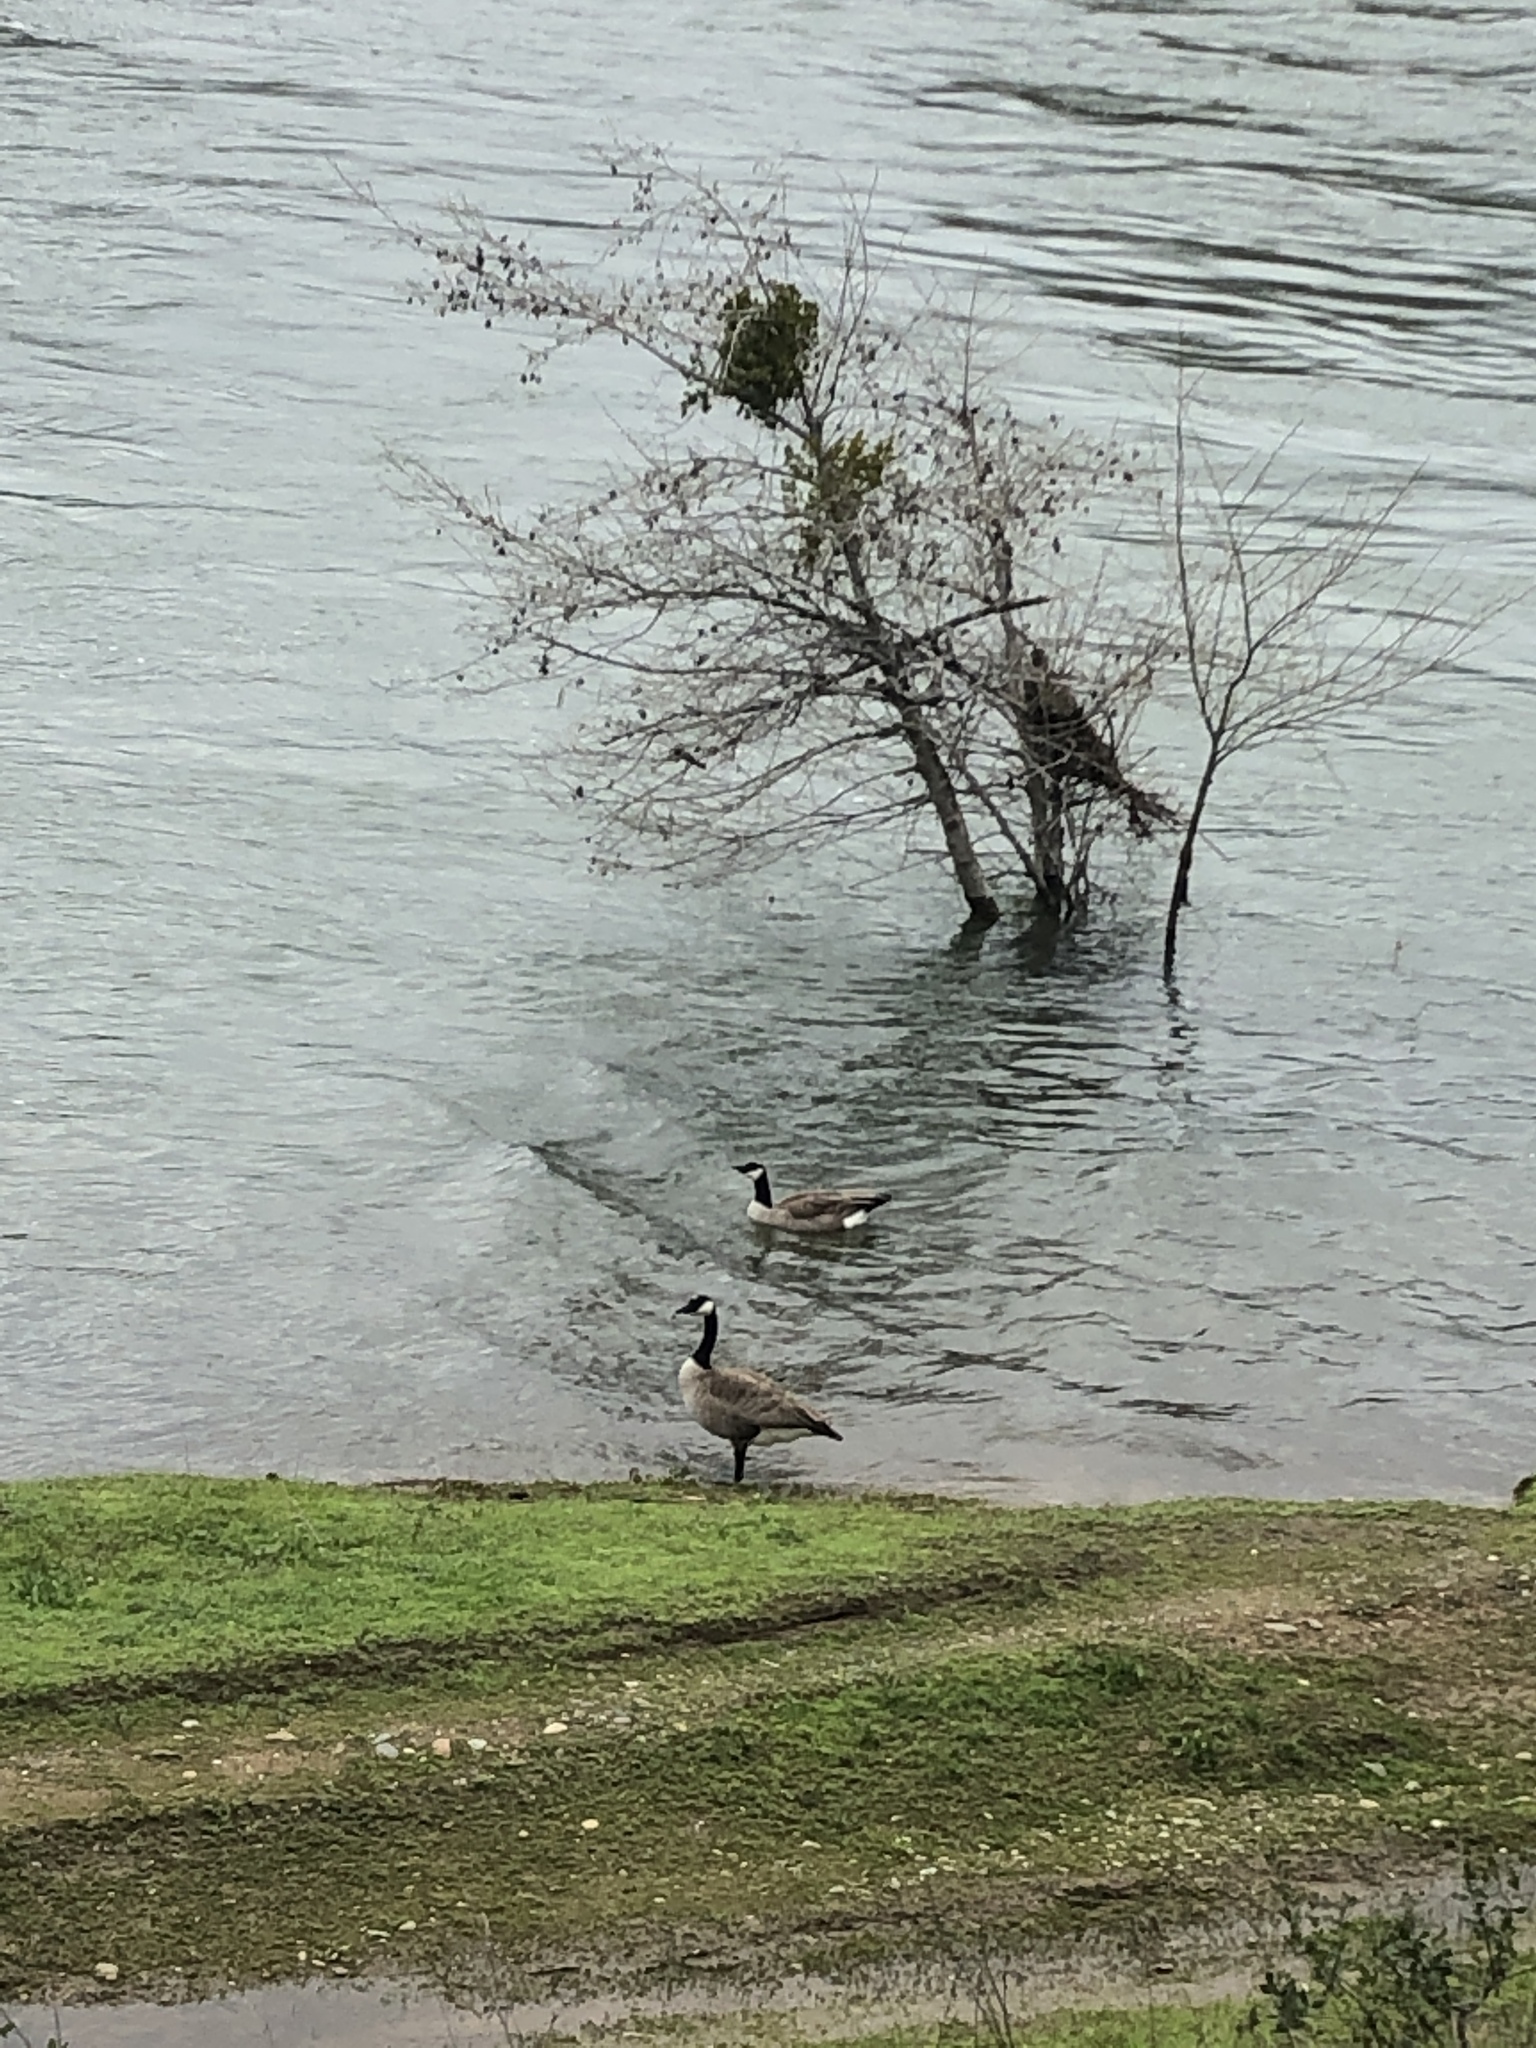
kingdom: Animalia
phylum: Chordata
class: Aves
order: Anseriformes
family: Anatidae
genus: Branta
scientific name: Branta canadensis
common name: Canada goose
